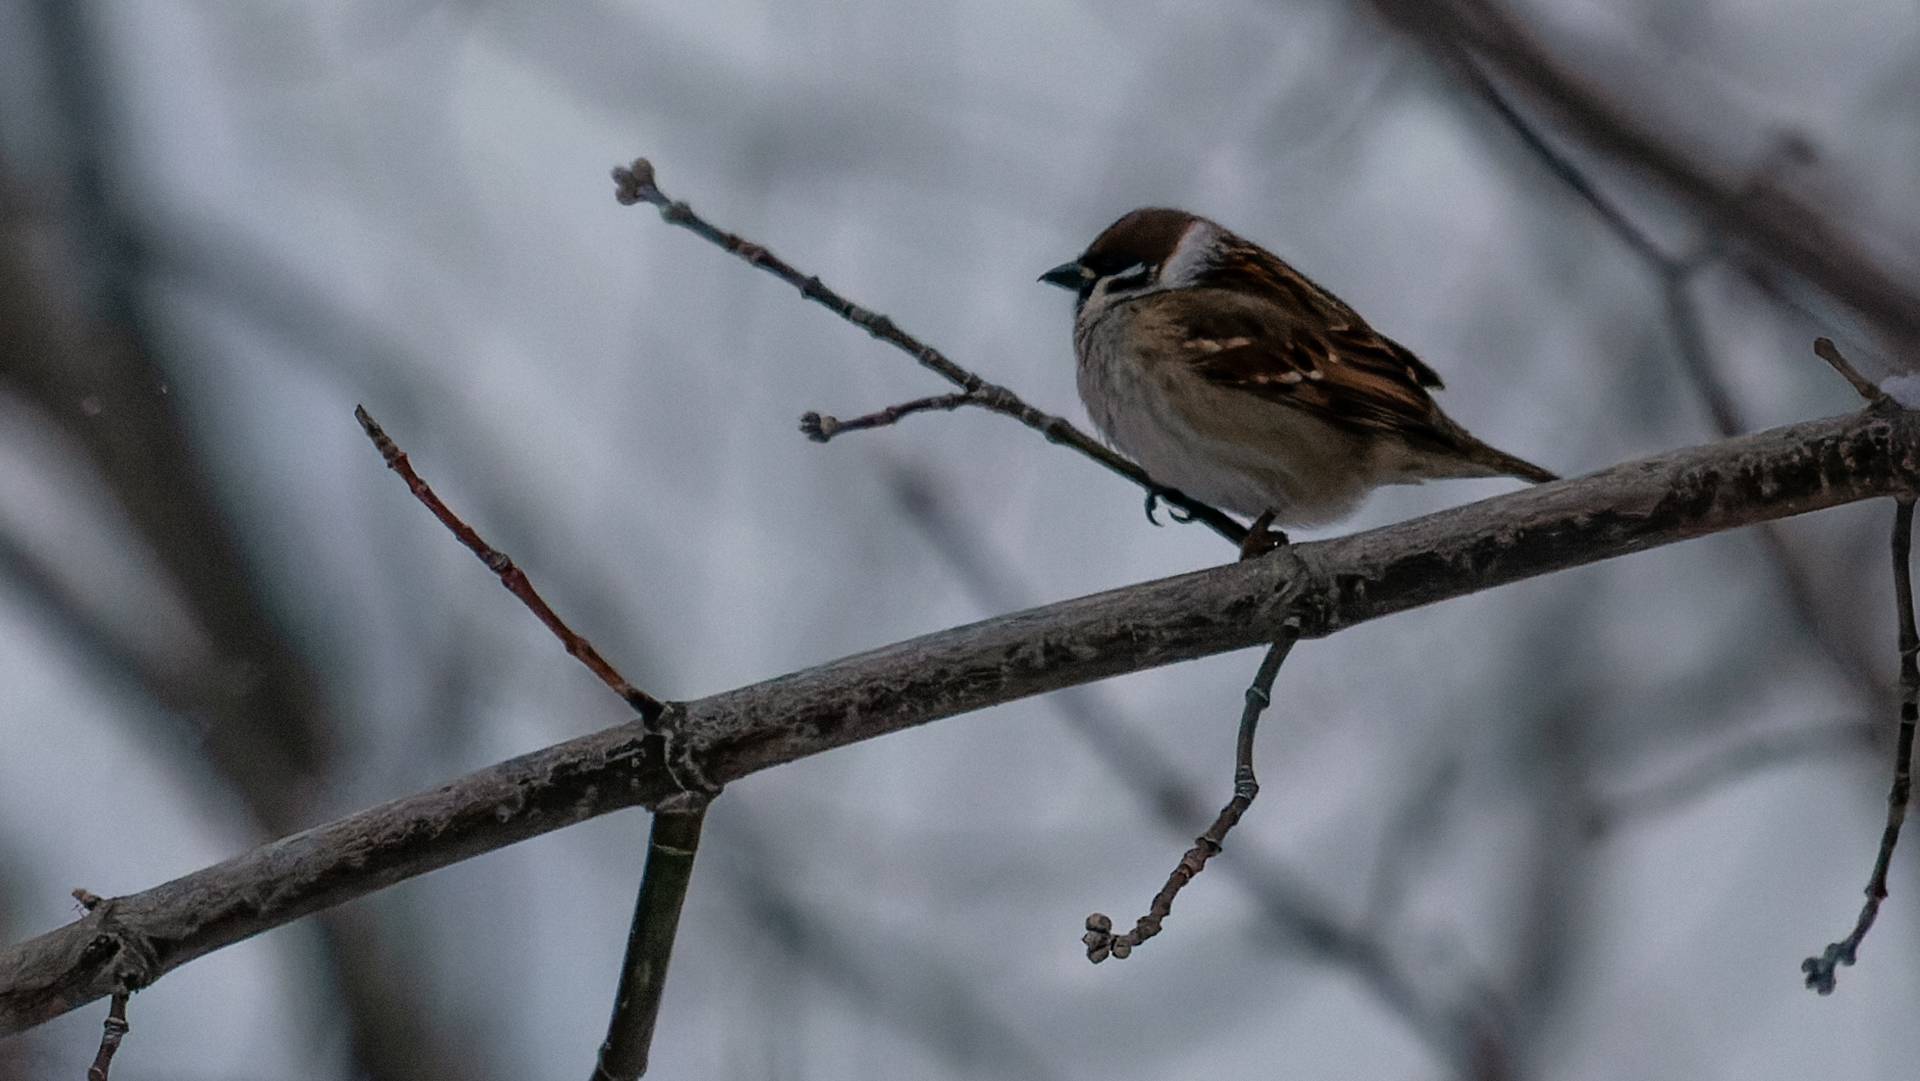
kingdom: Animalia
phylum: Chordata
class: Aves
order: Passeriformes
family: Passeridae
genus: Passer
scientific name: Passer montanus
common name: Eurasian tree sparrow
